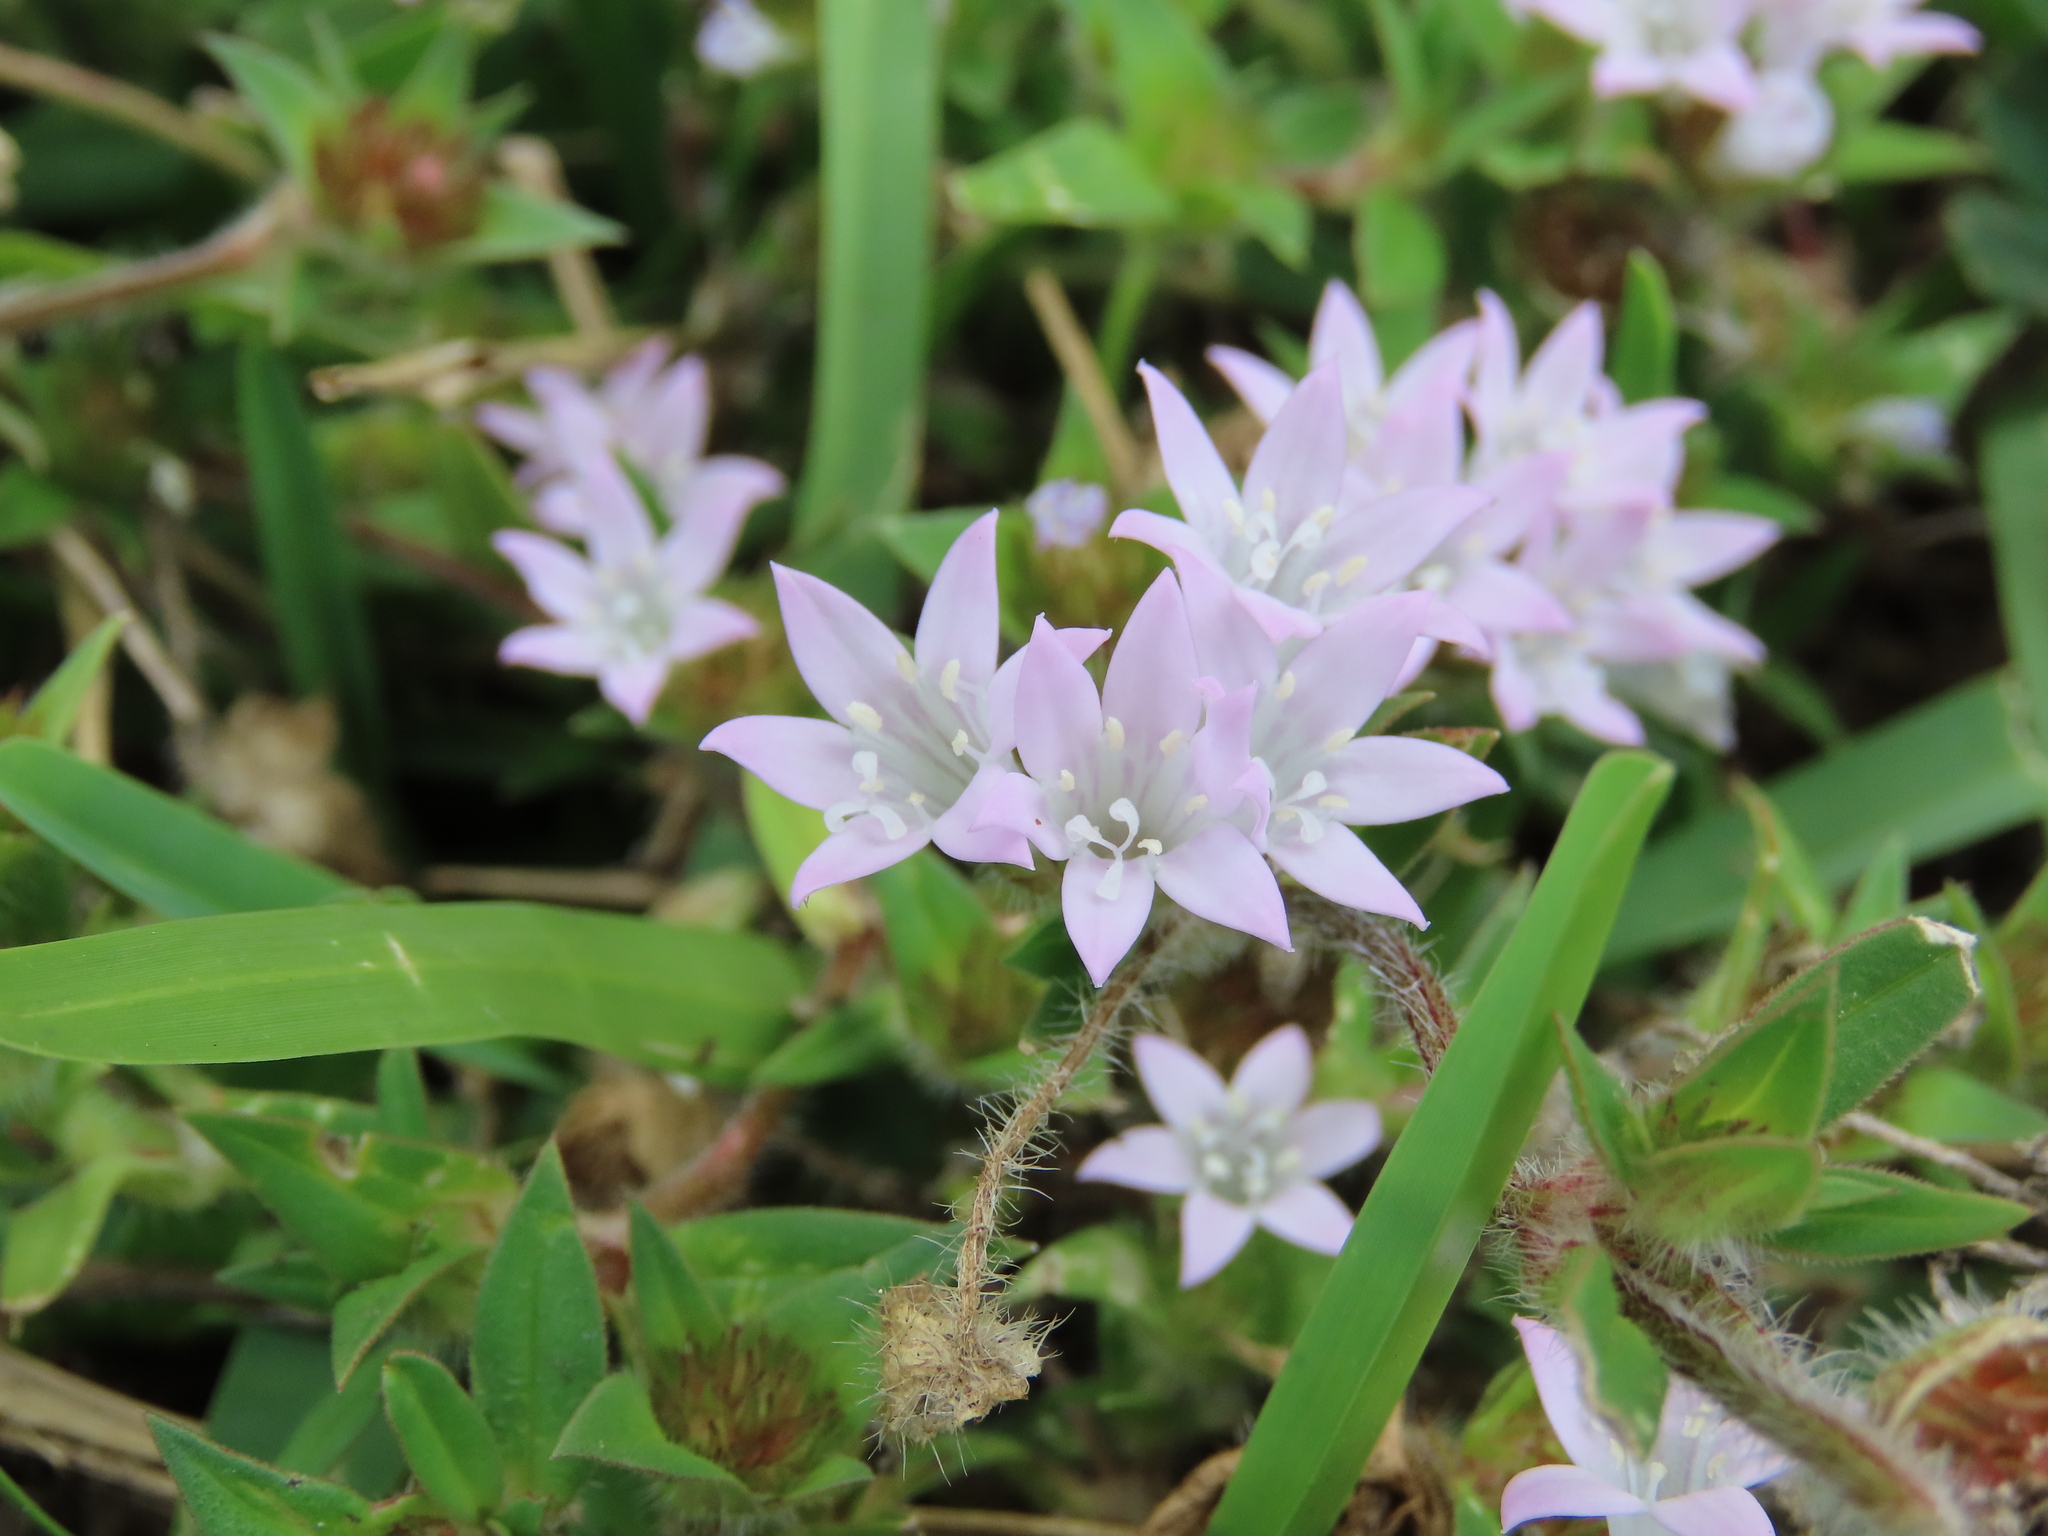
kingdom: Plantae
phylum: Tracheophyta
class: Magnoliopsida
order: Gentianales
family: Rubiaceae
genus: Richardia
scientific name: Richardia grandiflora
